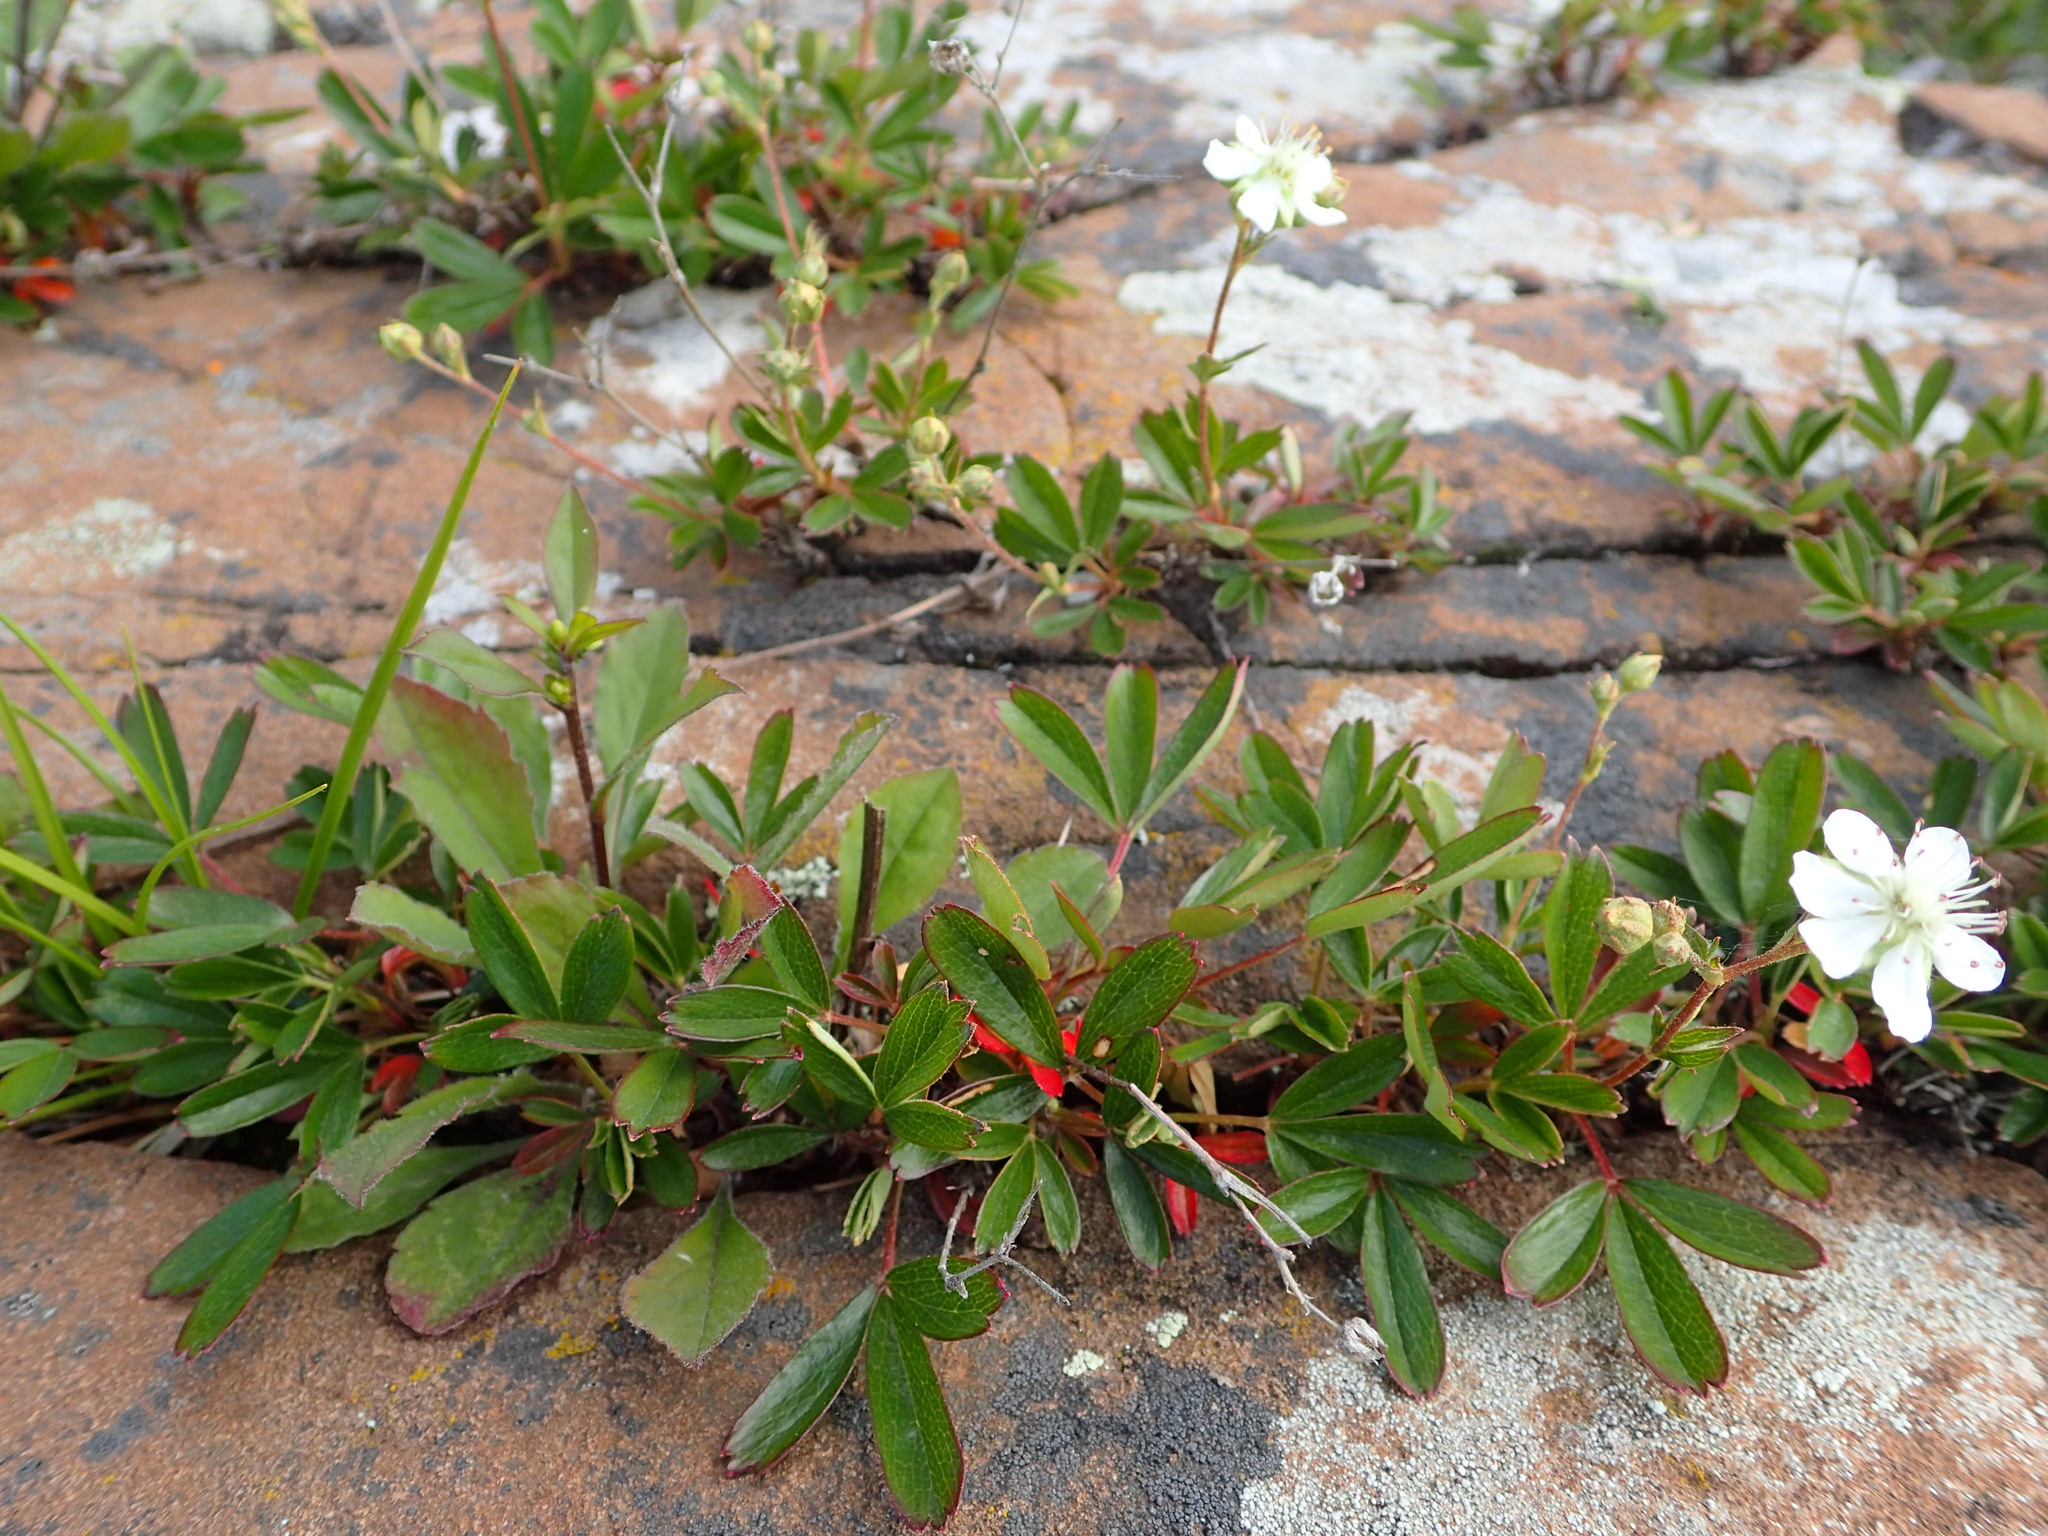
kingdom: Plantae
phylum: Tracheophyta
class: Magnoliopsida
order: Rosales
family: Rosaceae
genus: Sibbaldia
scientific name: Sibbaldia tridentata
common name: Three-toothed cinquefoil
